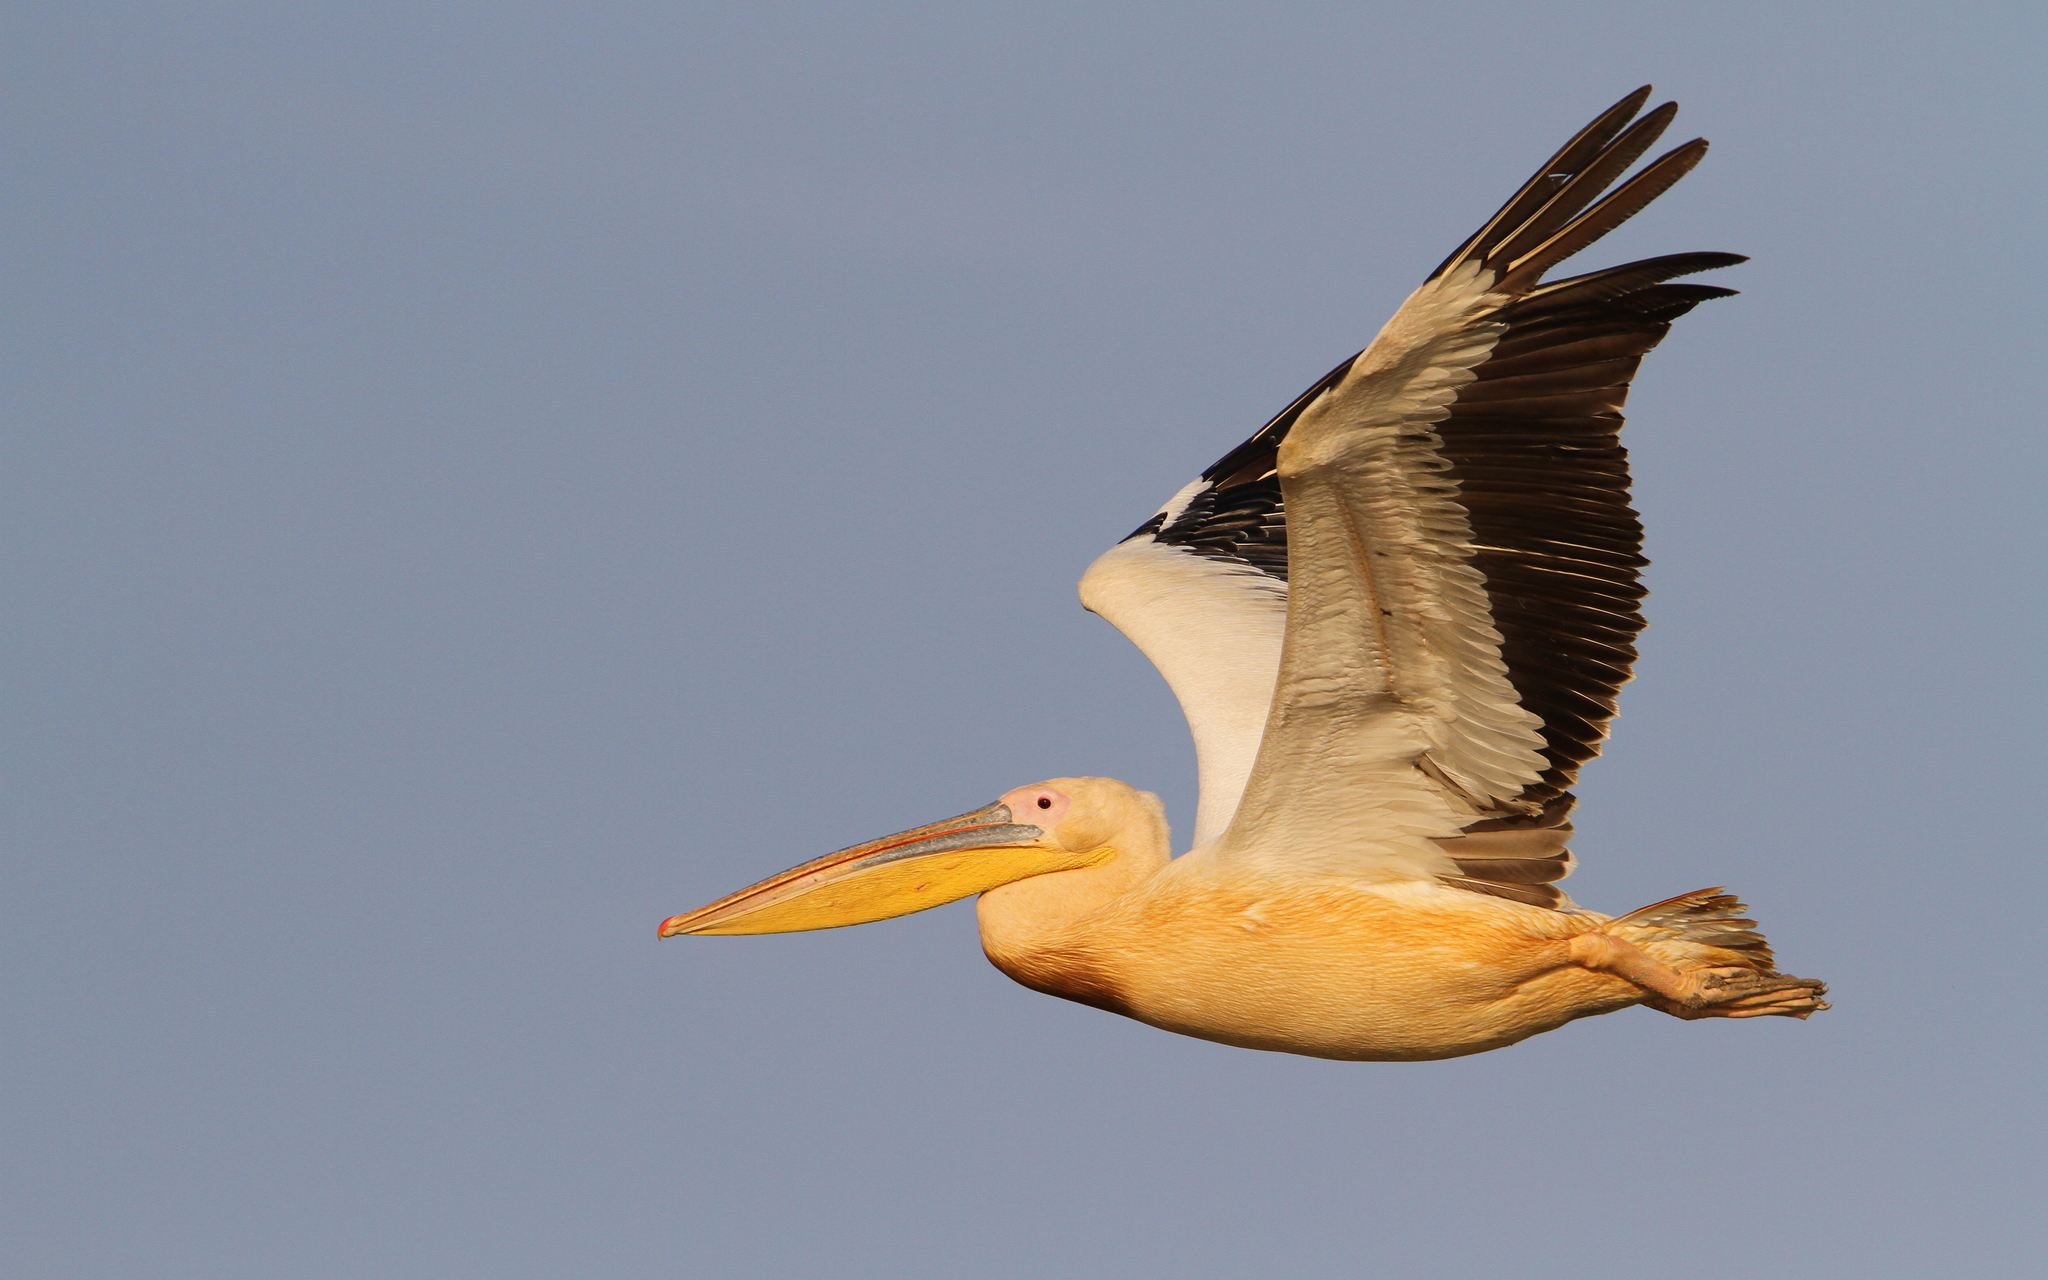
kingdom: Animalia
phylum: Chordata
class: Aves
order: Pelecaniformes
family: Pelecanidae
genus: Pelecanus
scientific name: Pelecanus onocrotalus
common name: Great white pelican
